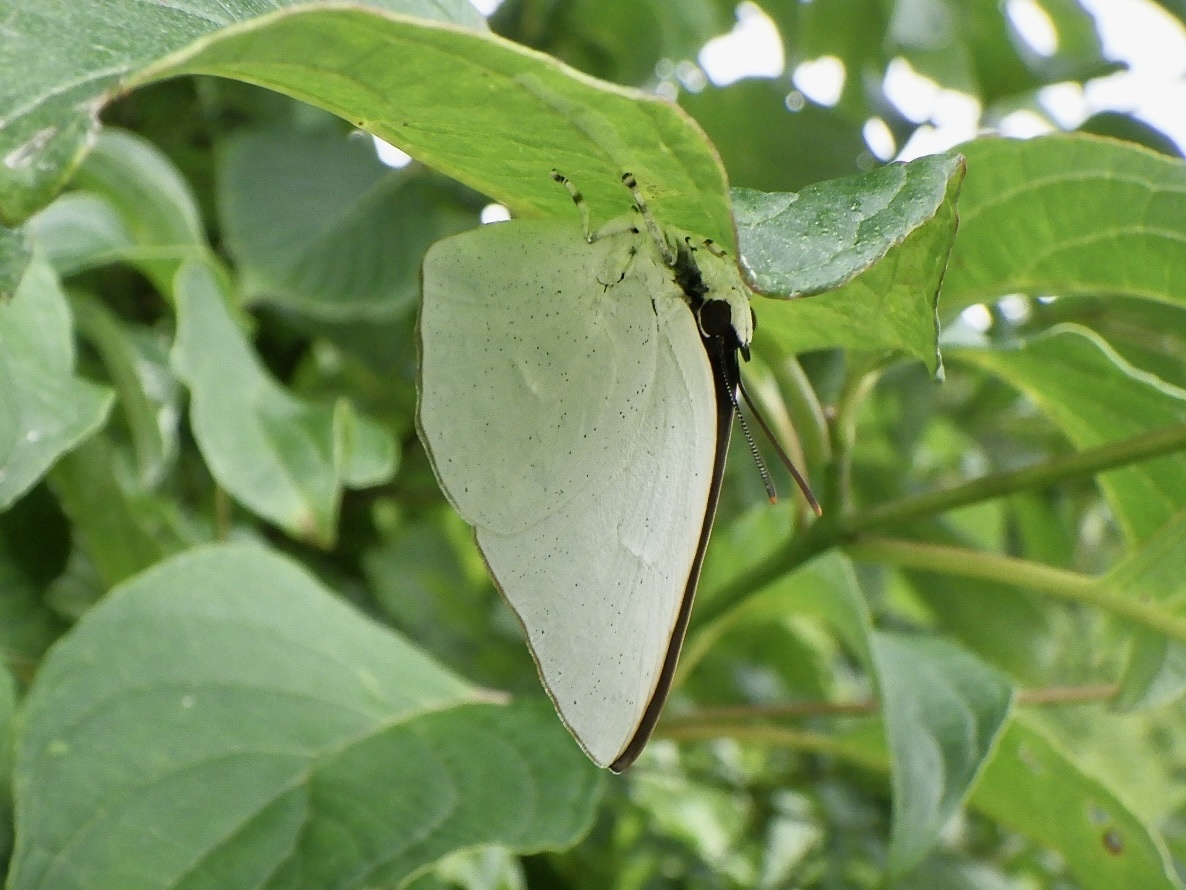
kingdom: Animalia
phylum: Arthropoda
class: Insecta
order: Lepidoptera
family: Lycaenidae
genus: Curetis
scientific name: Curetis acuta
